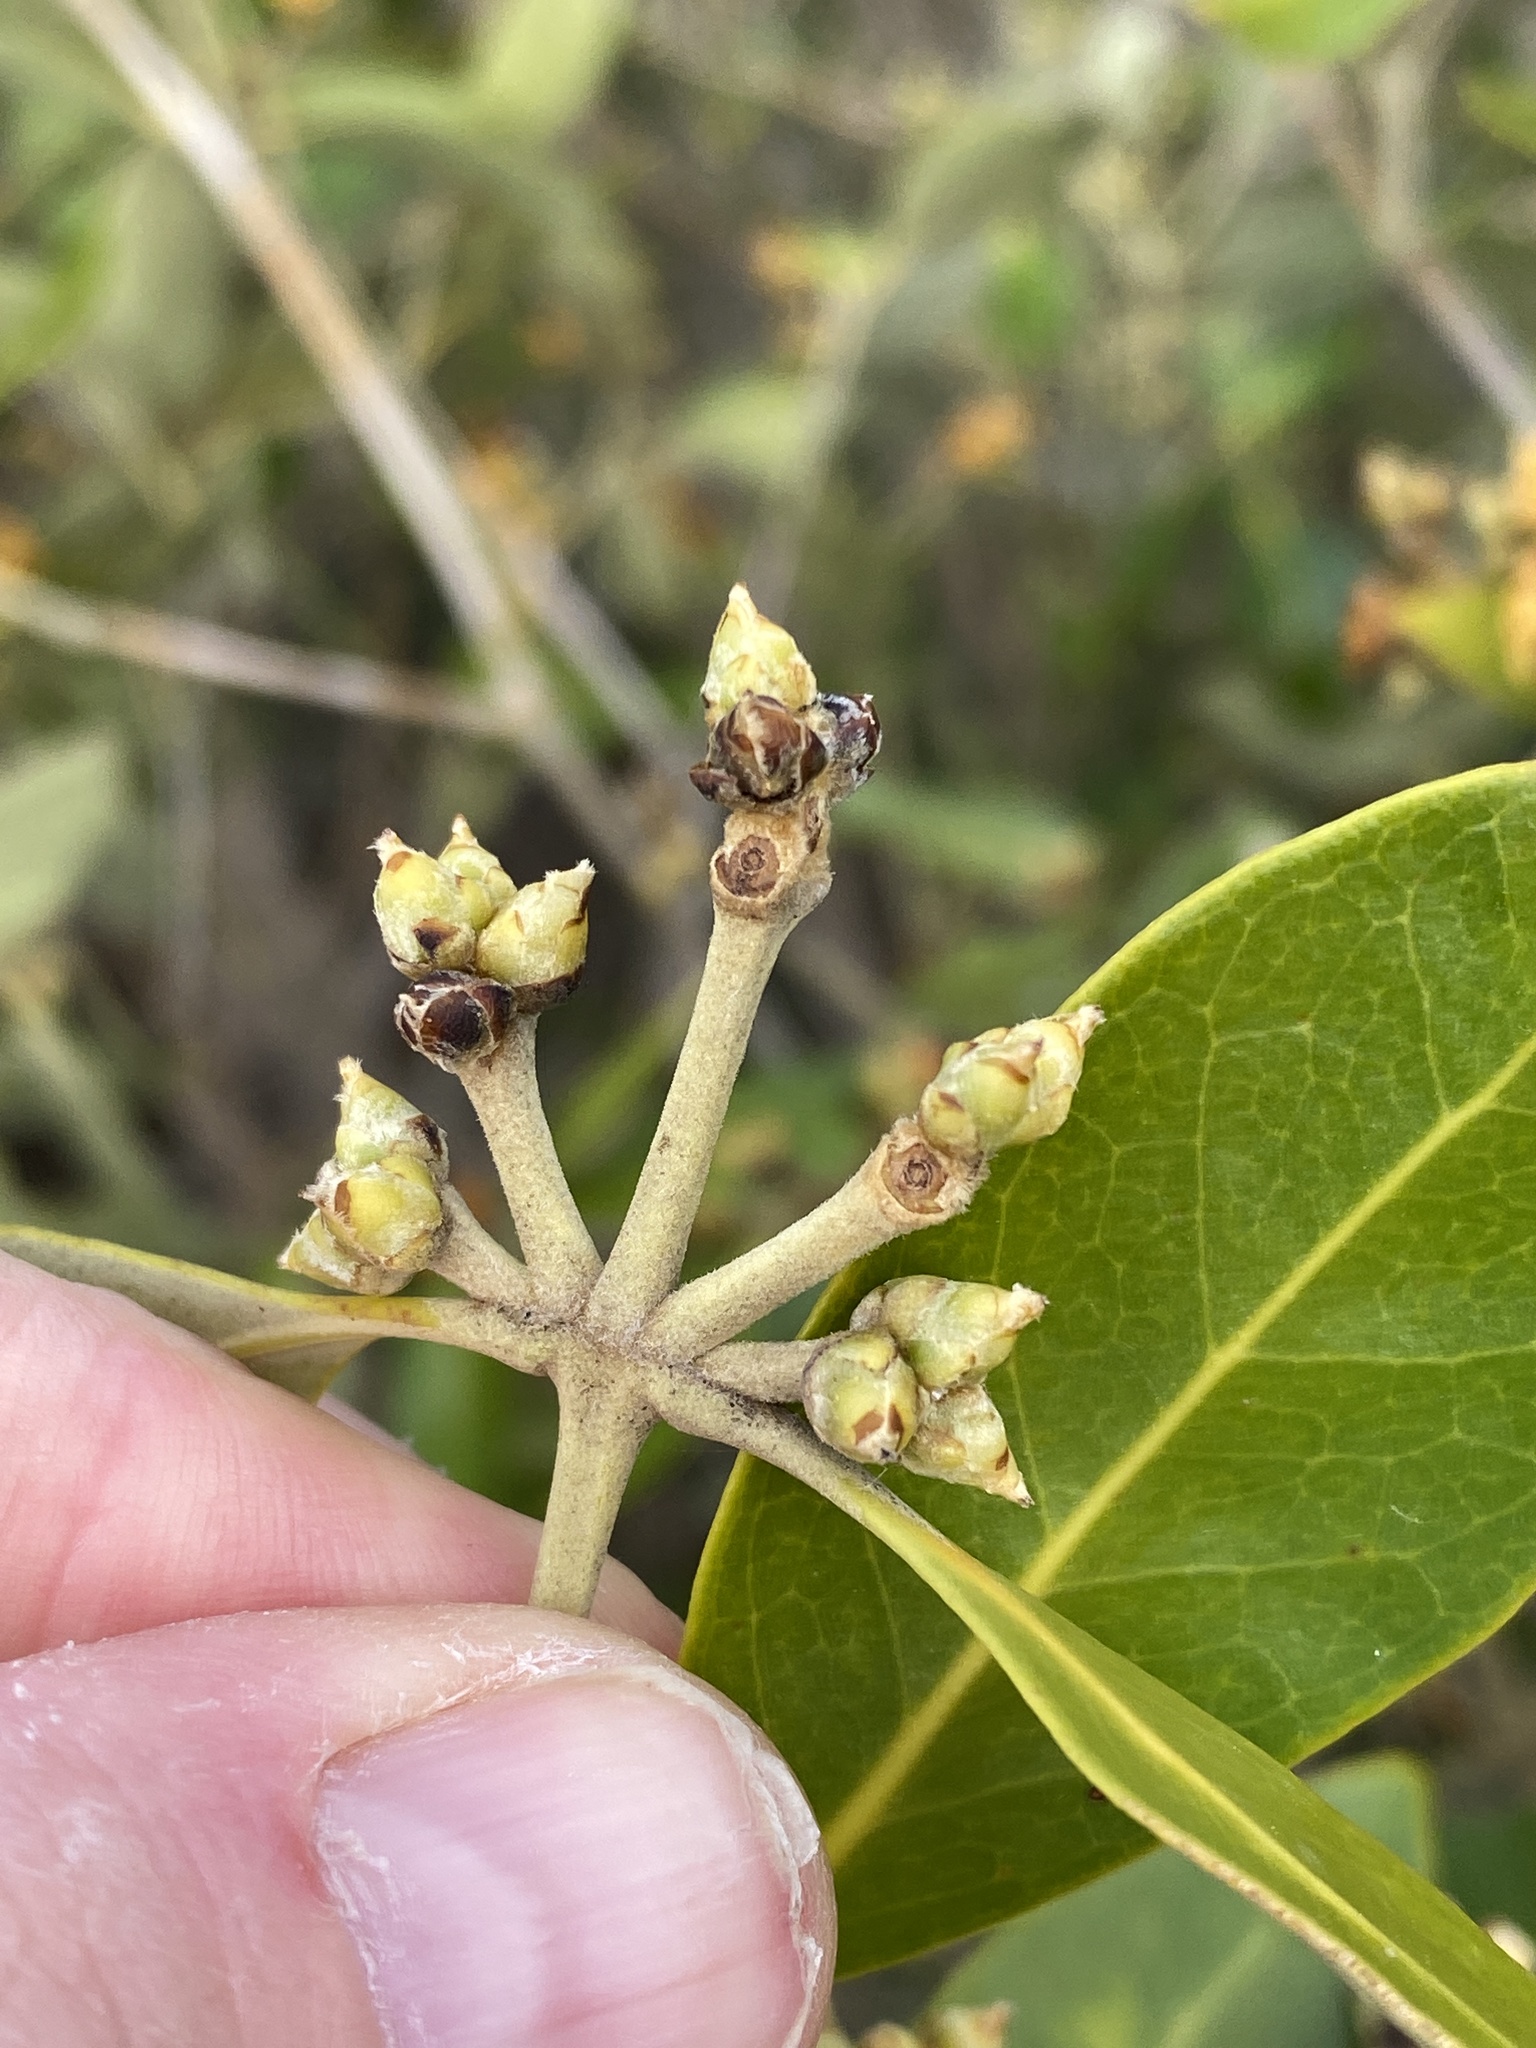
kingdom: Plantae
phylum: Tracheophyta
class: Magnoliopsida
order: Lamiales
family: Acanthaceae
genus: Avicennia
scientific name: Avicennia marina
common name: Gray mangrove
